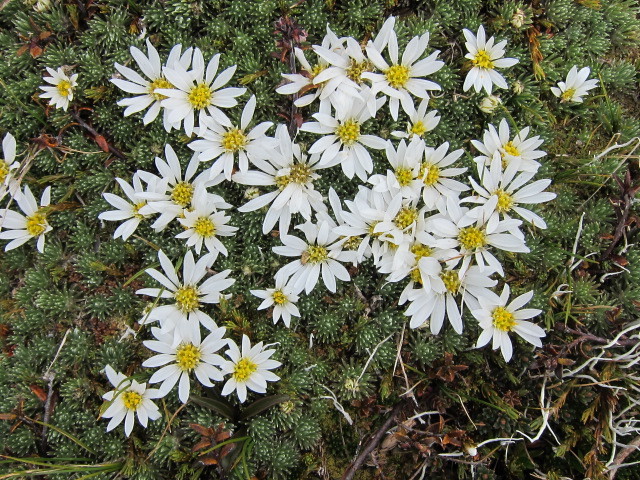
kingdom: Plantae
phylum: Tracheophyta
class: Magnoliopsida
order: Asterales
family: Asteraceae
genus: Celmisia
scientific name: Celmisia argentea
